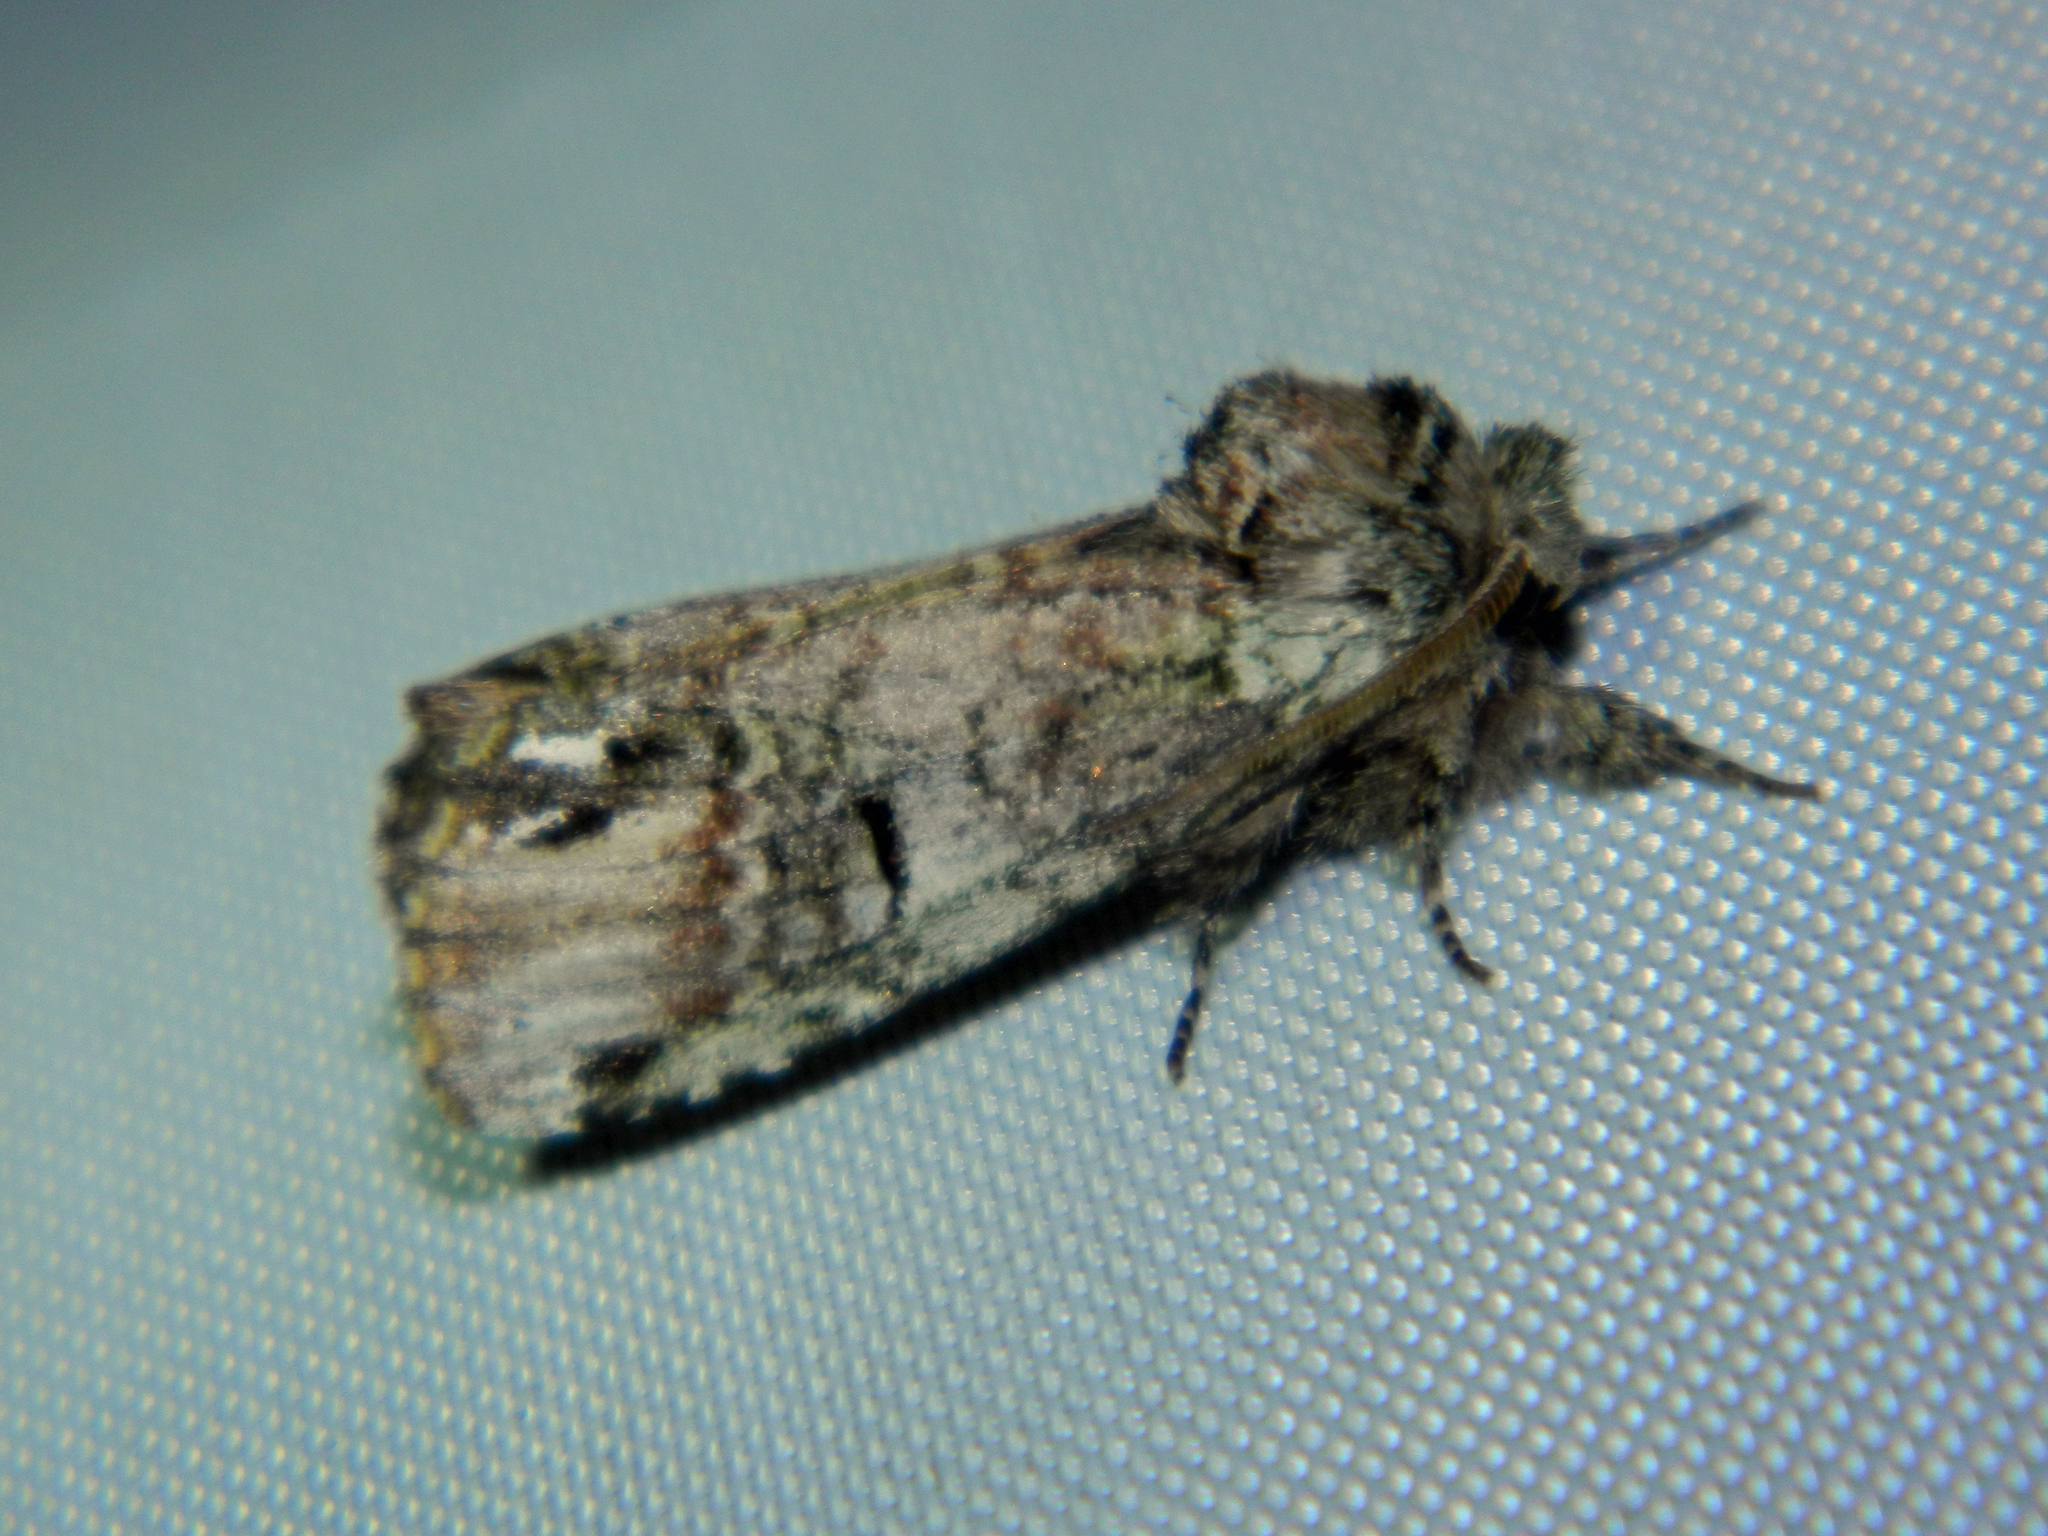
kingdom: Animalia
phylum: Arthropoda
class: Insecta
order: Lepidoptera
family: Notodontidae
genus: Schizura
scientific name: Schizura
